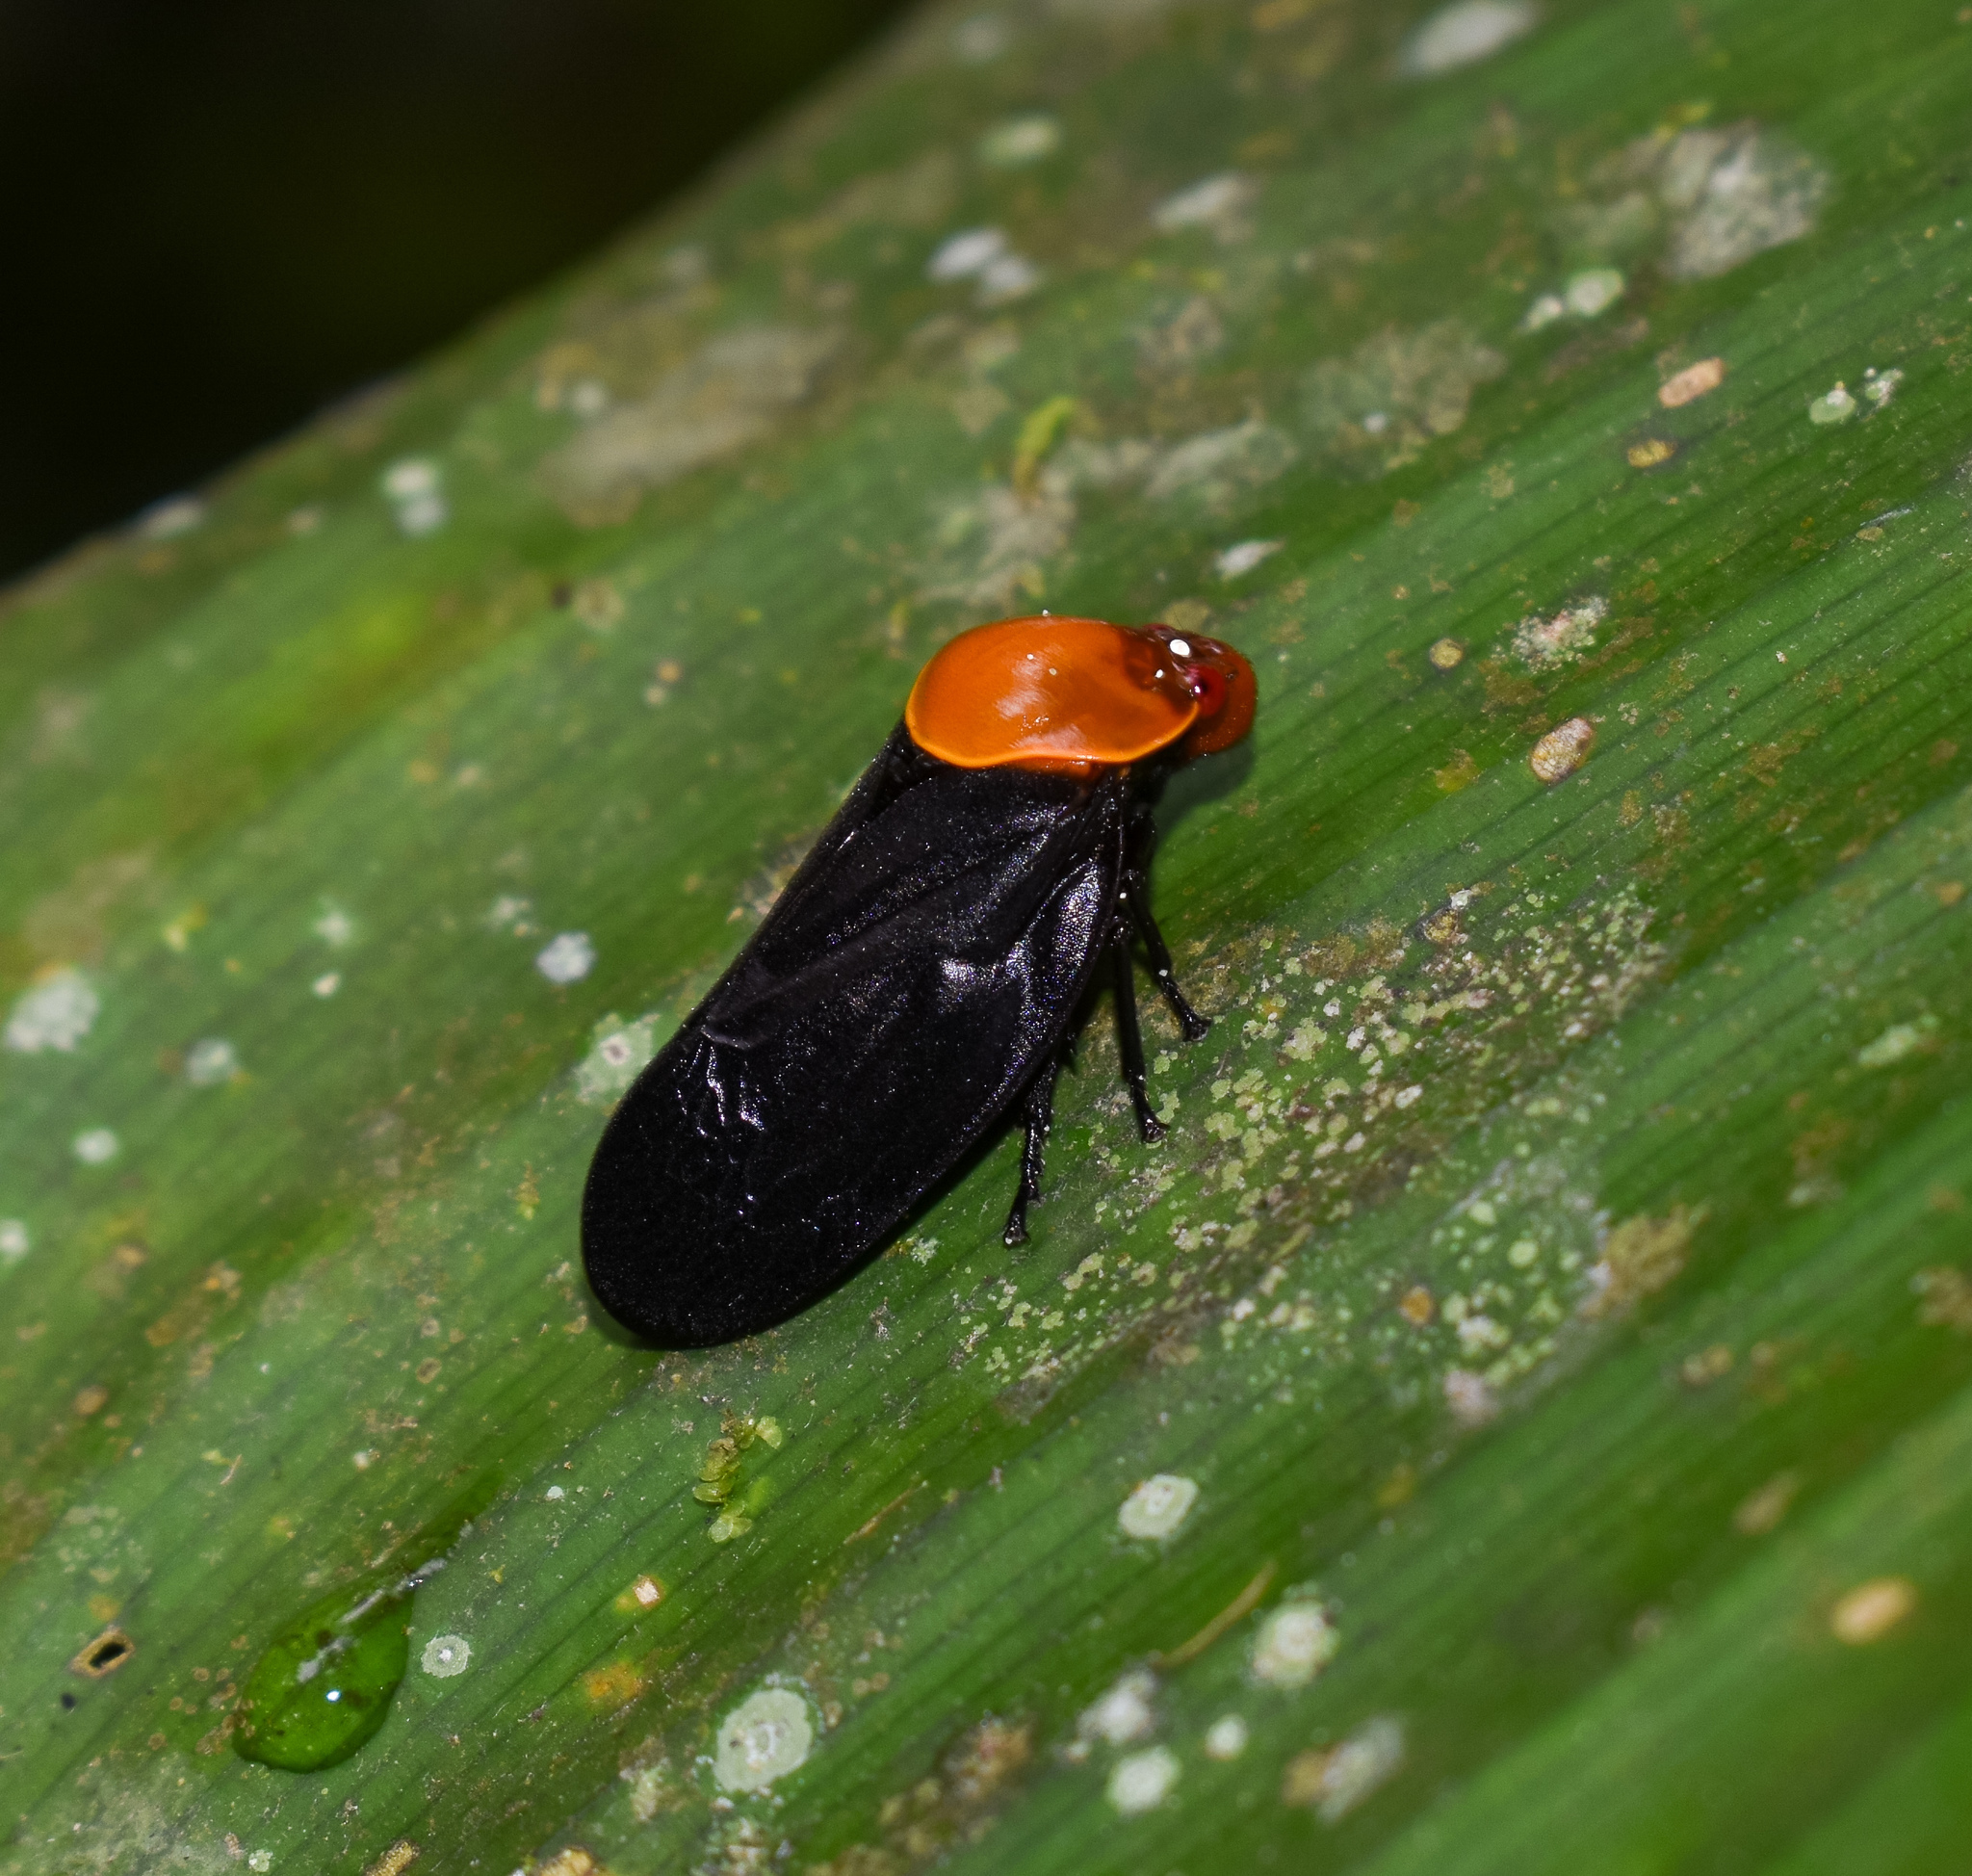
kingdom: Animalia
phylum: Arthropoda
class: Insecta
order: Hemiptera
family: Cercopidae
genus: Leptataspis
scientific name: Leptataspis fruhstorferi
